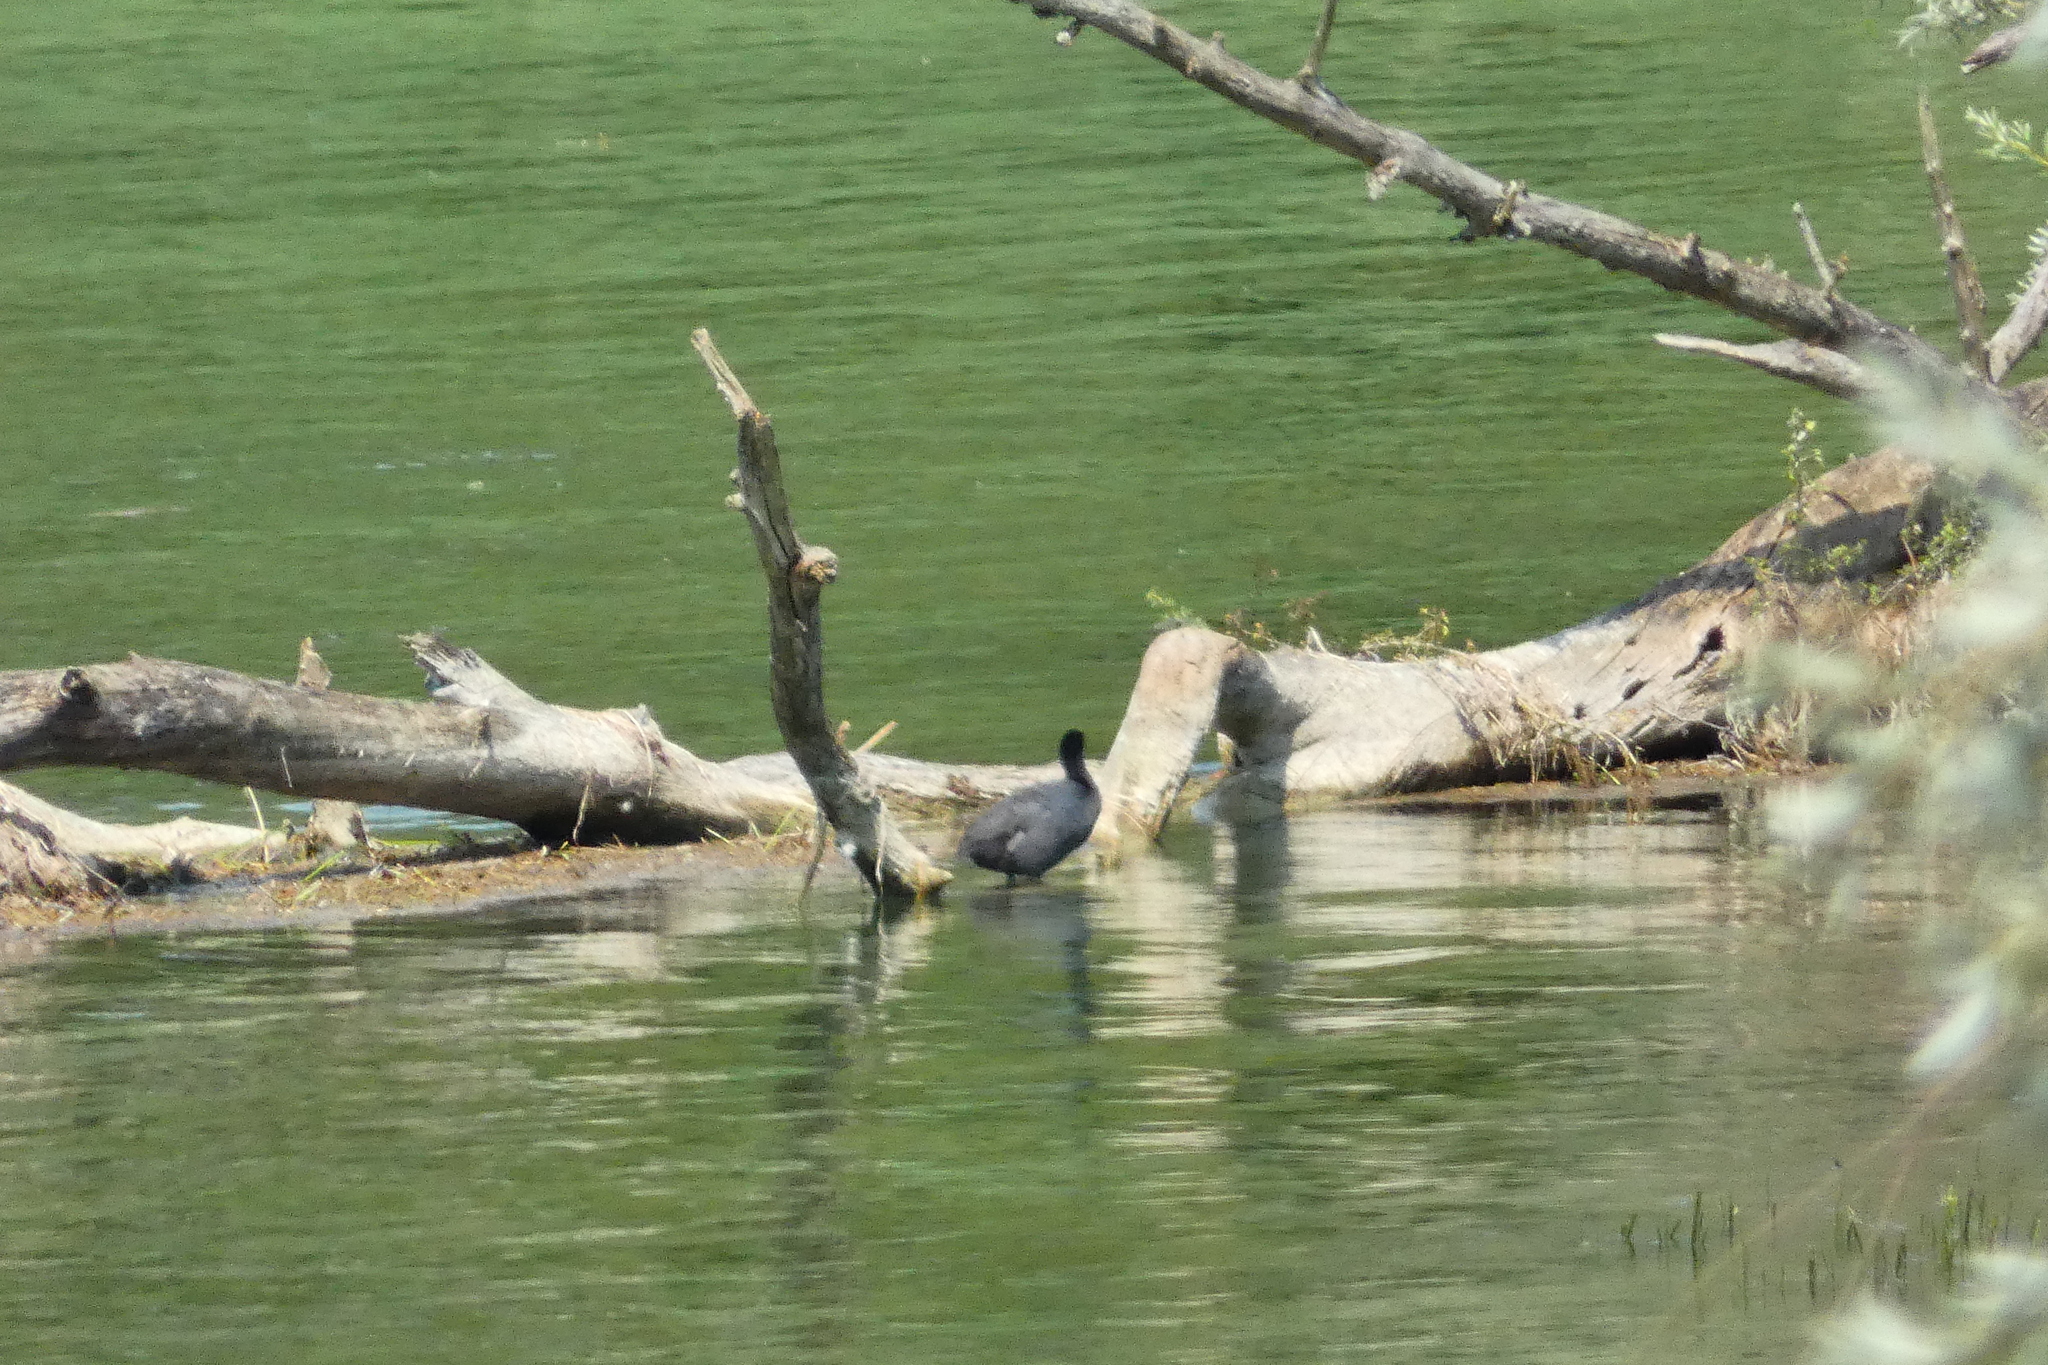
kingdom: Animalia
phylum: Chordata
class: Aves
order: Gruiformes
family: Rallidae
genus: Fulica
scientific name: Fulica atra
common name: Eurasian coot
